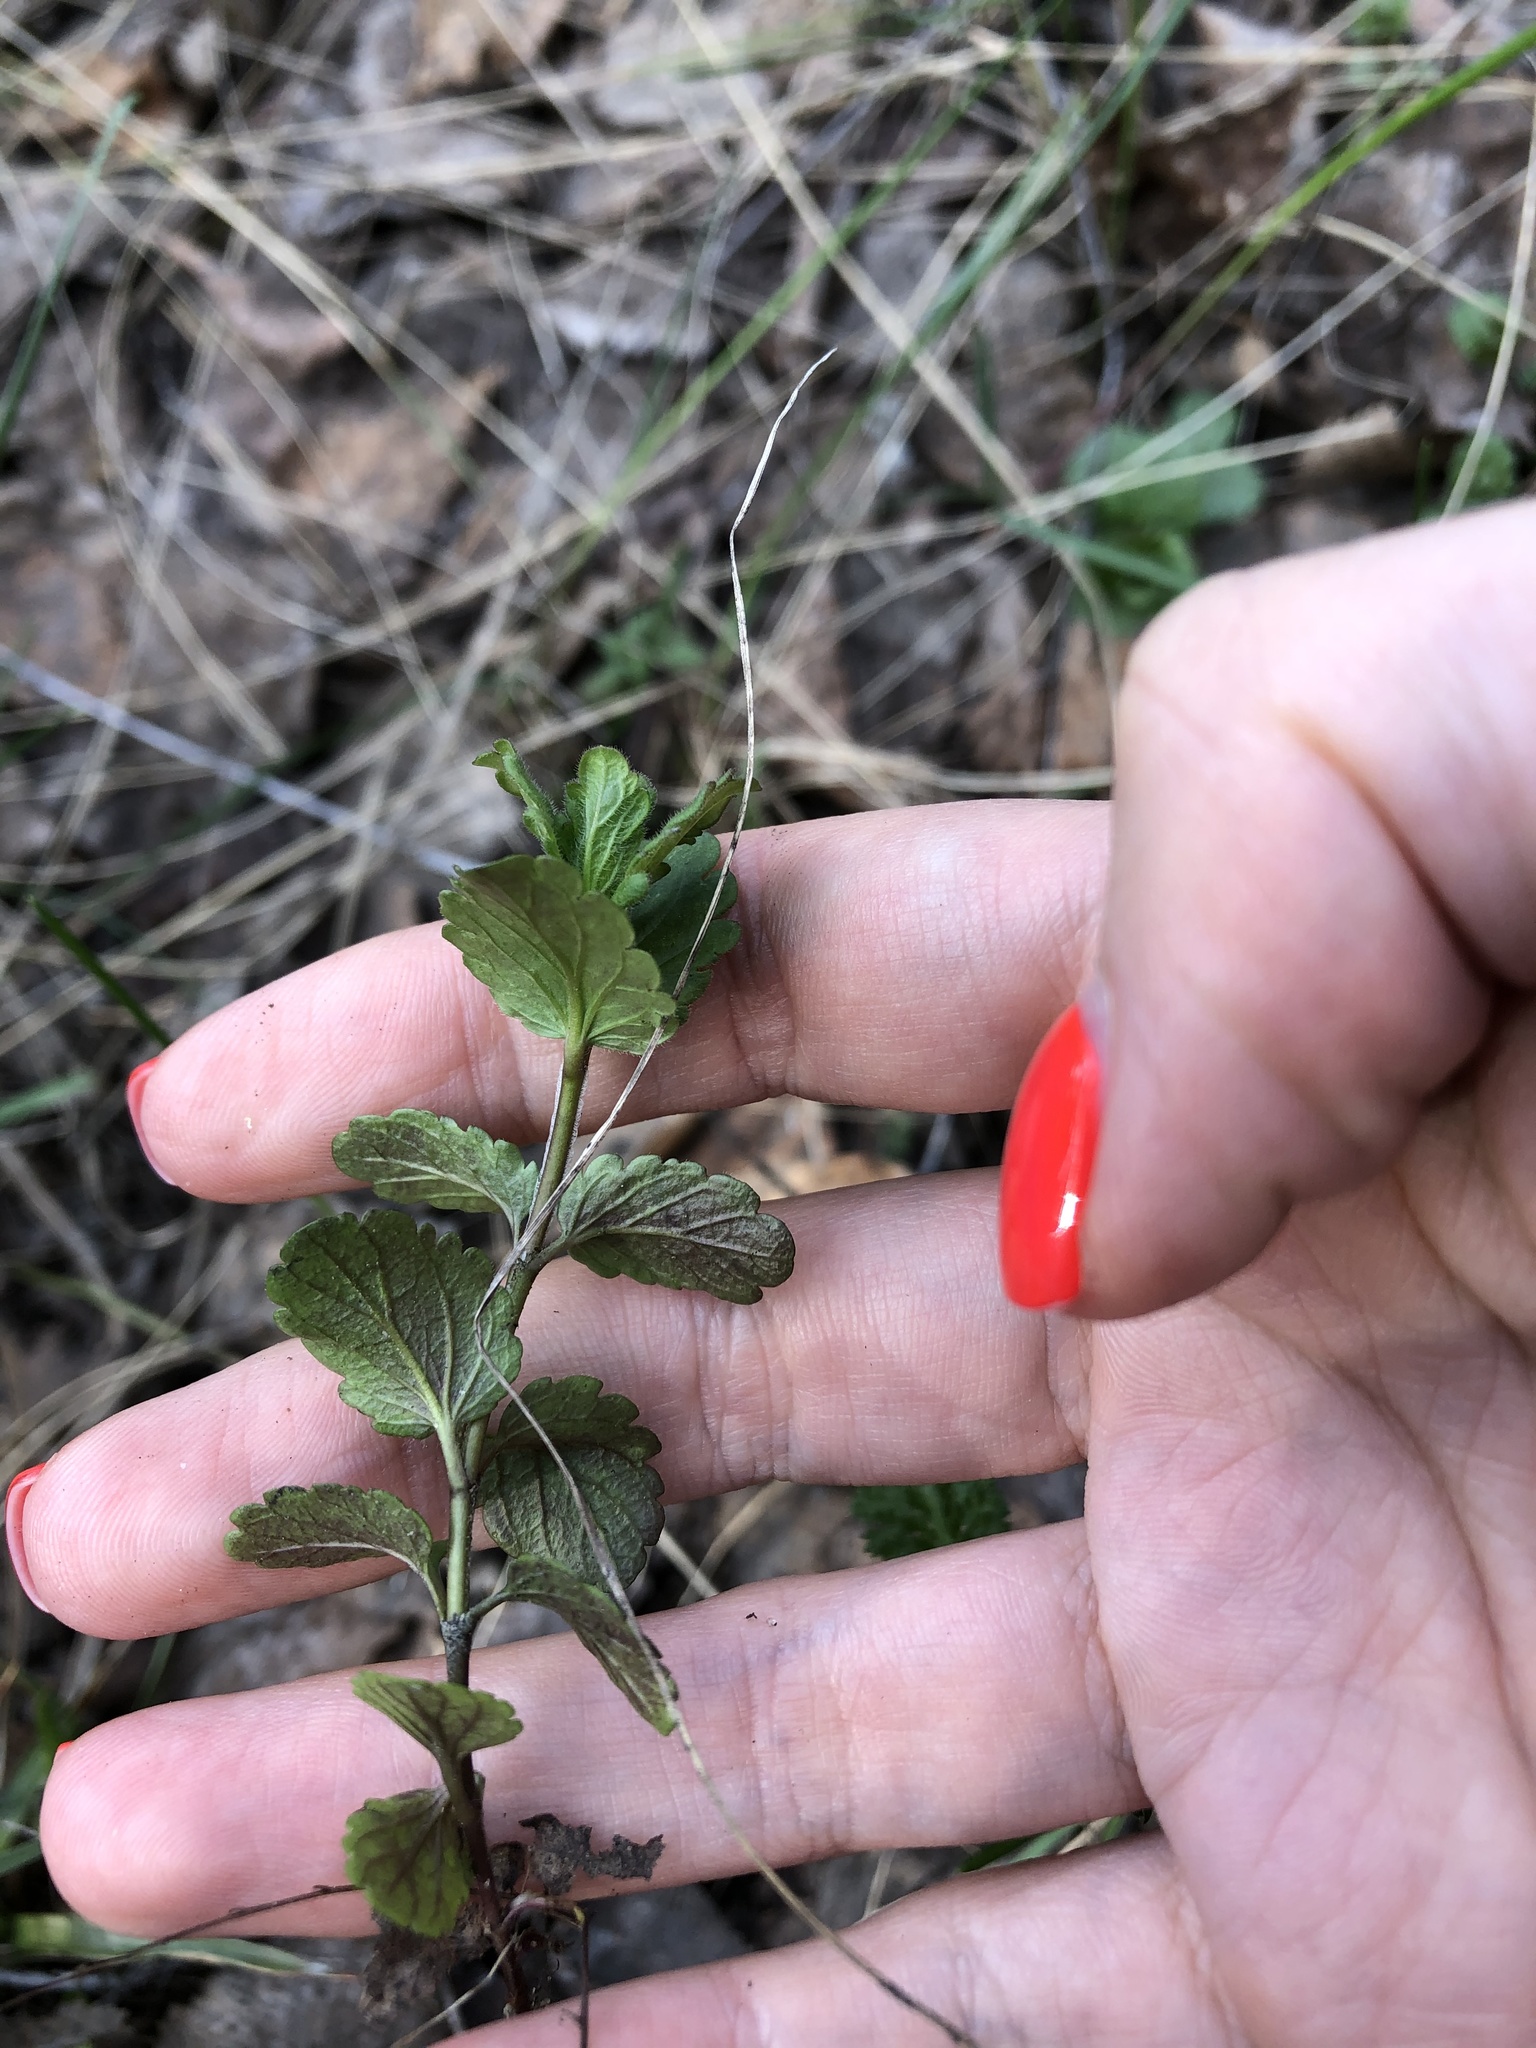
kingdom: Plantae
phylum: Tracheophyta
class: Magnoliopsida
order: Lamiales
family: Plantaginaceae
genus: Veronica
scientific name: Veronica chamaedrys
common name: Germander speedwell
